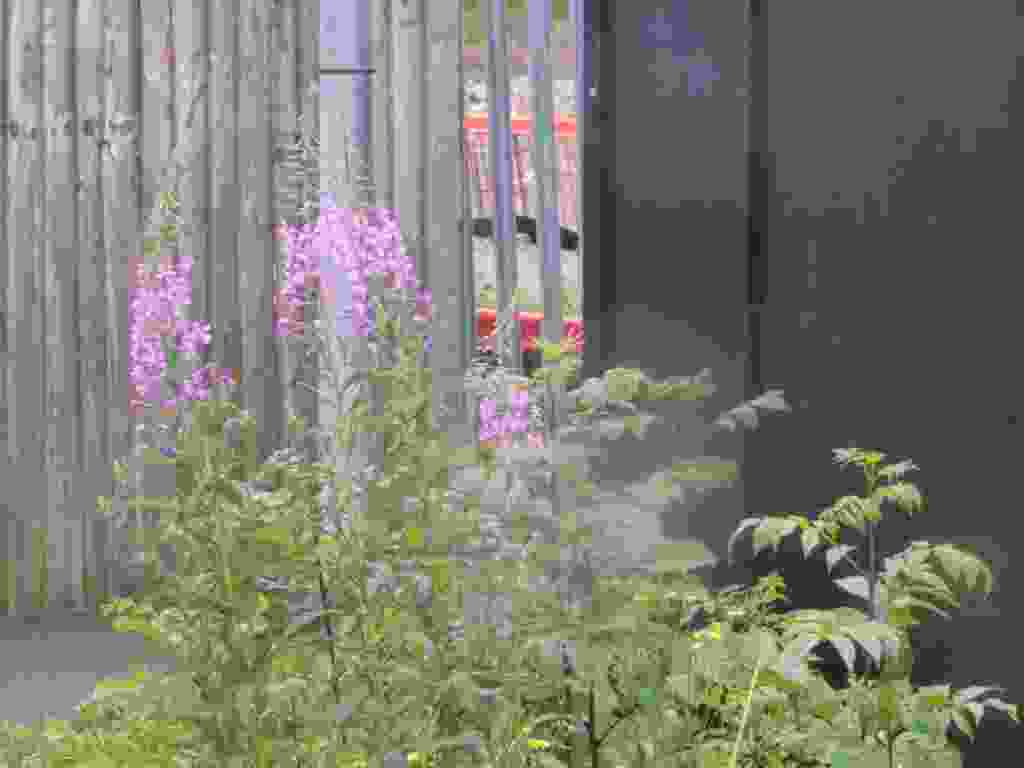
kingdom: Plantae
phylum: Tracheophyta
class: Magnoliopsida
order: Myrtales
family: Onagraceae
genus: Chamaenerion
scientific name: Chamaenerion angustifolium
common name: Fireweed
